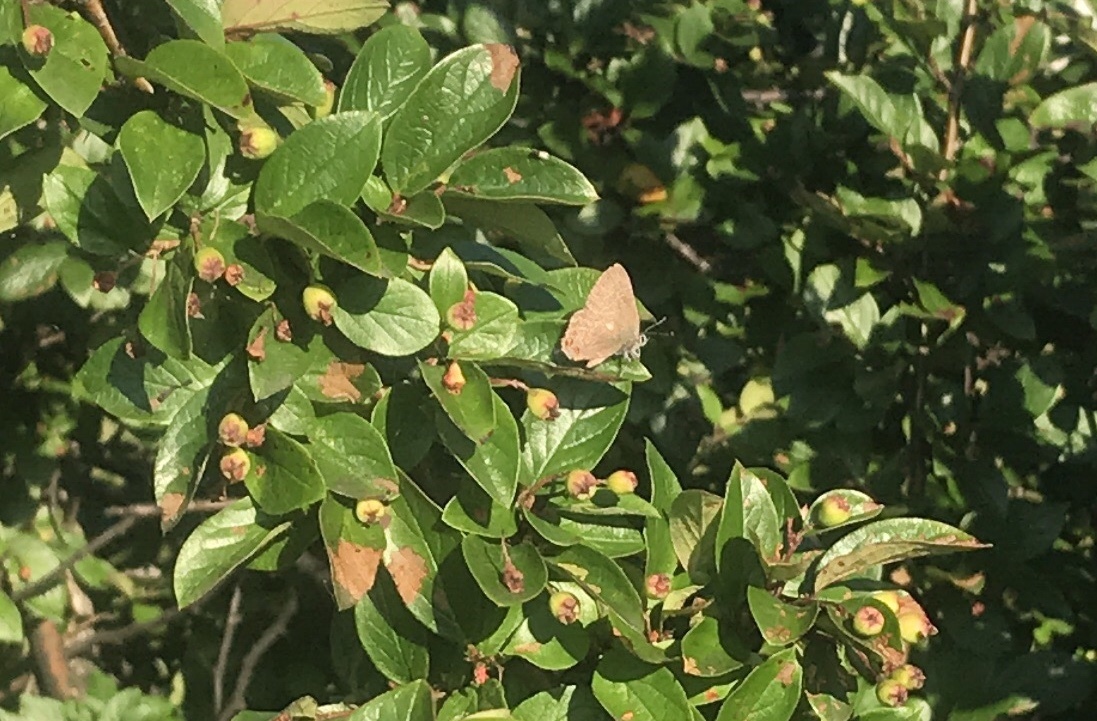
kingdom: Animalia
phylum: Arthropoda
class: Insecta
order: Lepidoptera
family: Lycaenidae
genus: Satyrium
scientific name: Satyrium liparops
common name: Striped hairstreak
